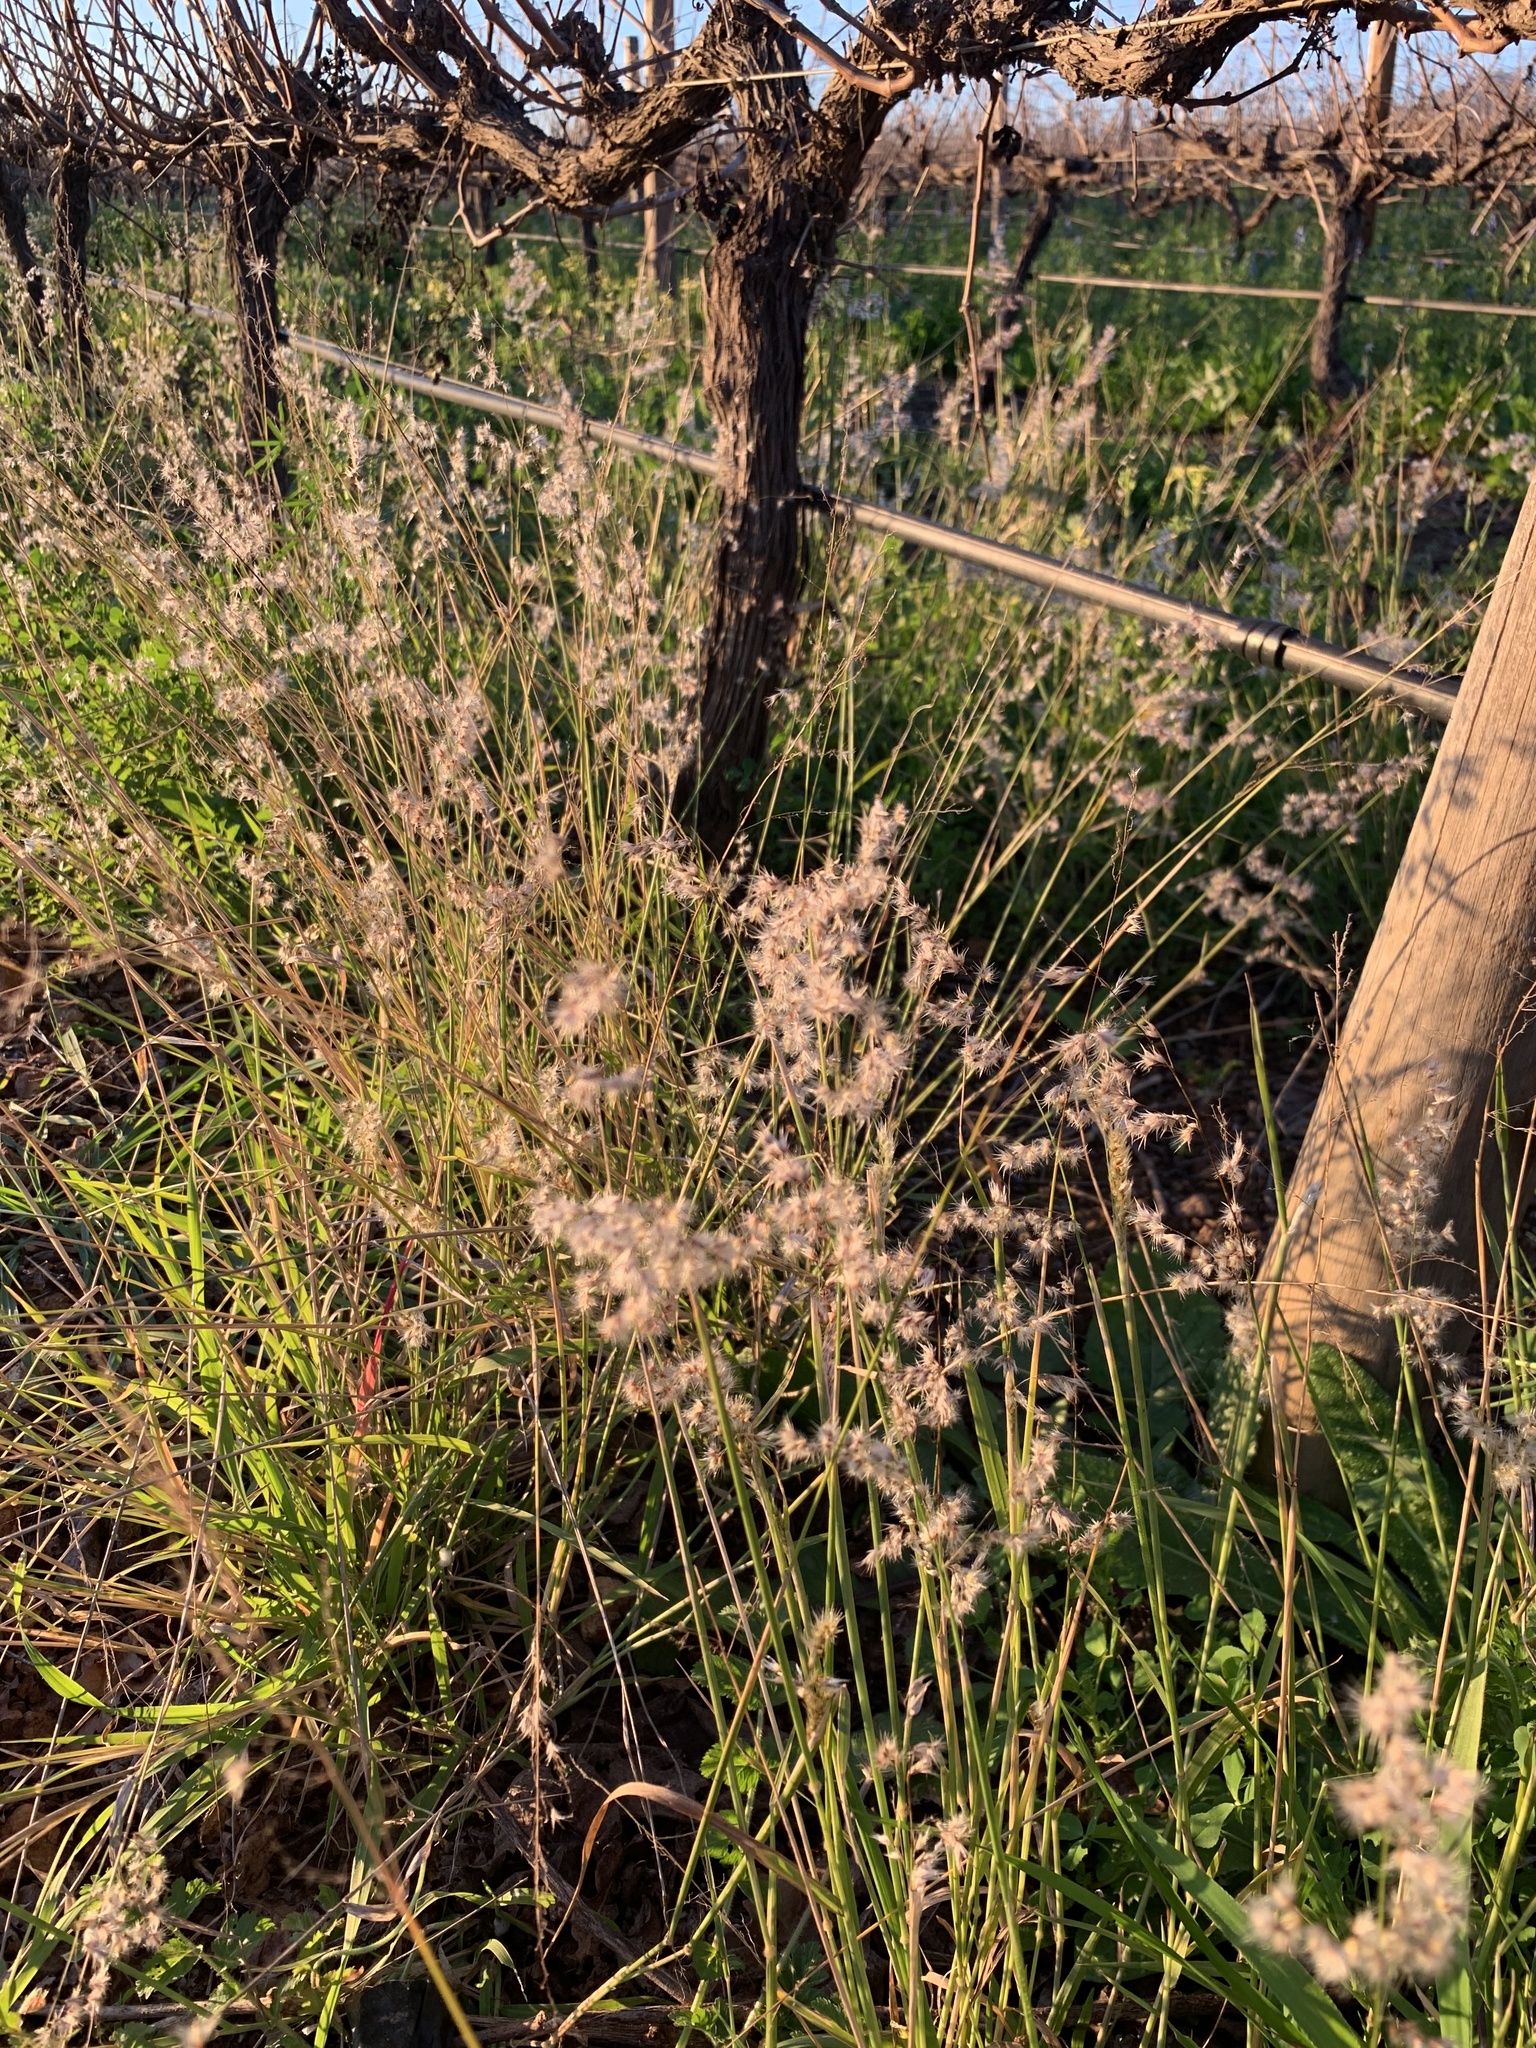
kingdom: Plantae
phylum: Tracheophyta
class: Liliopsida
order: Poales
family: Poaceae
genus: Melinis
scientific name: Melinis repens
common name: Rose natal grass
